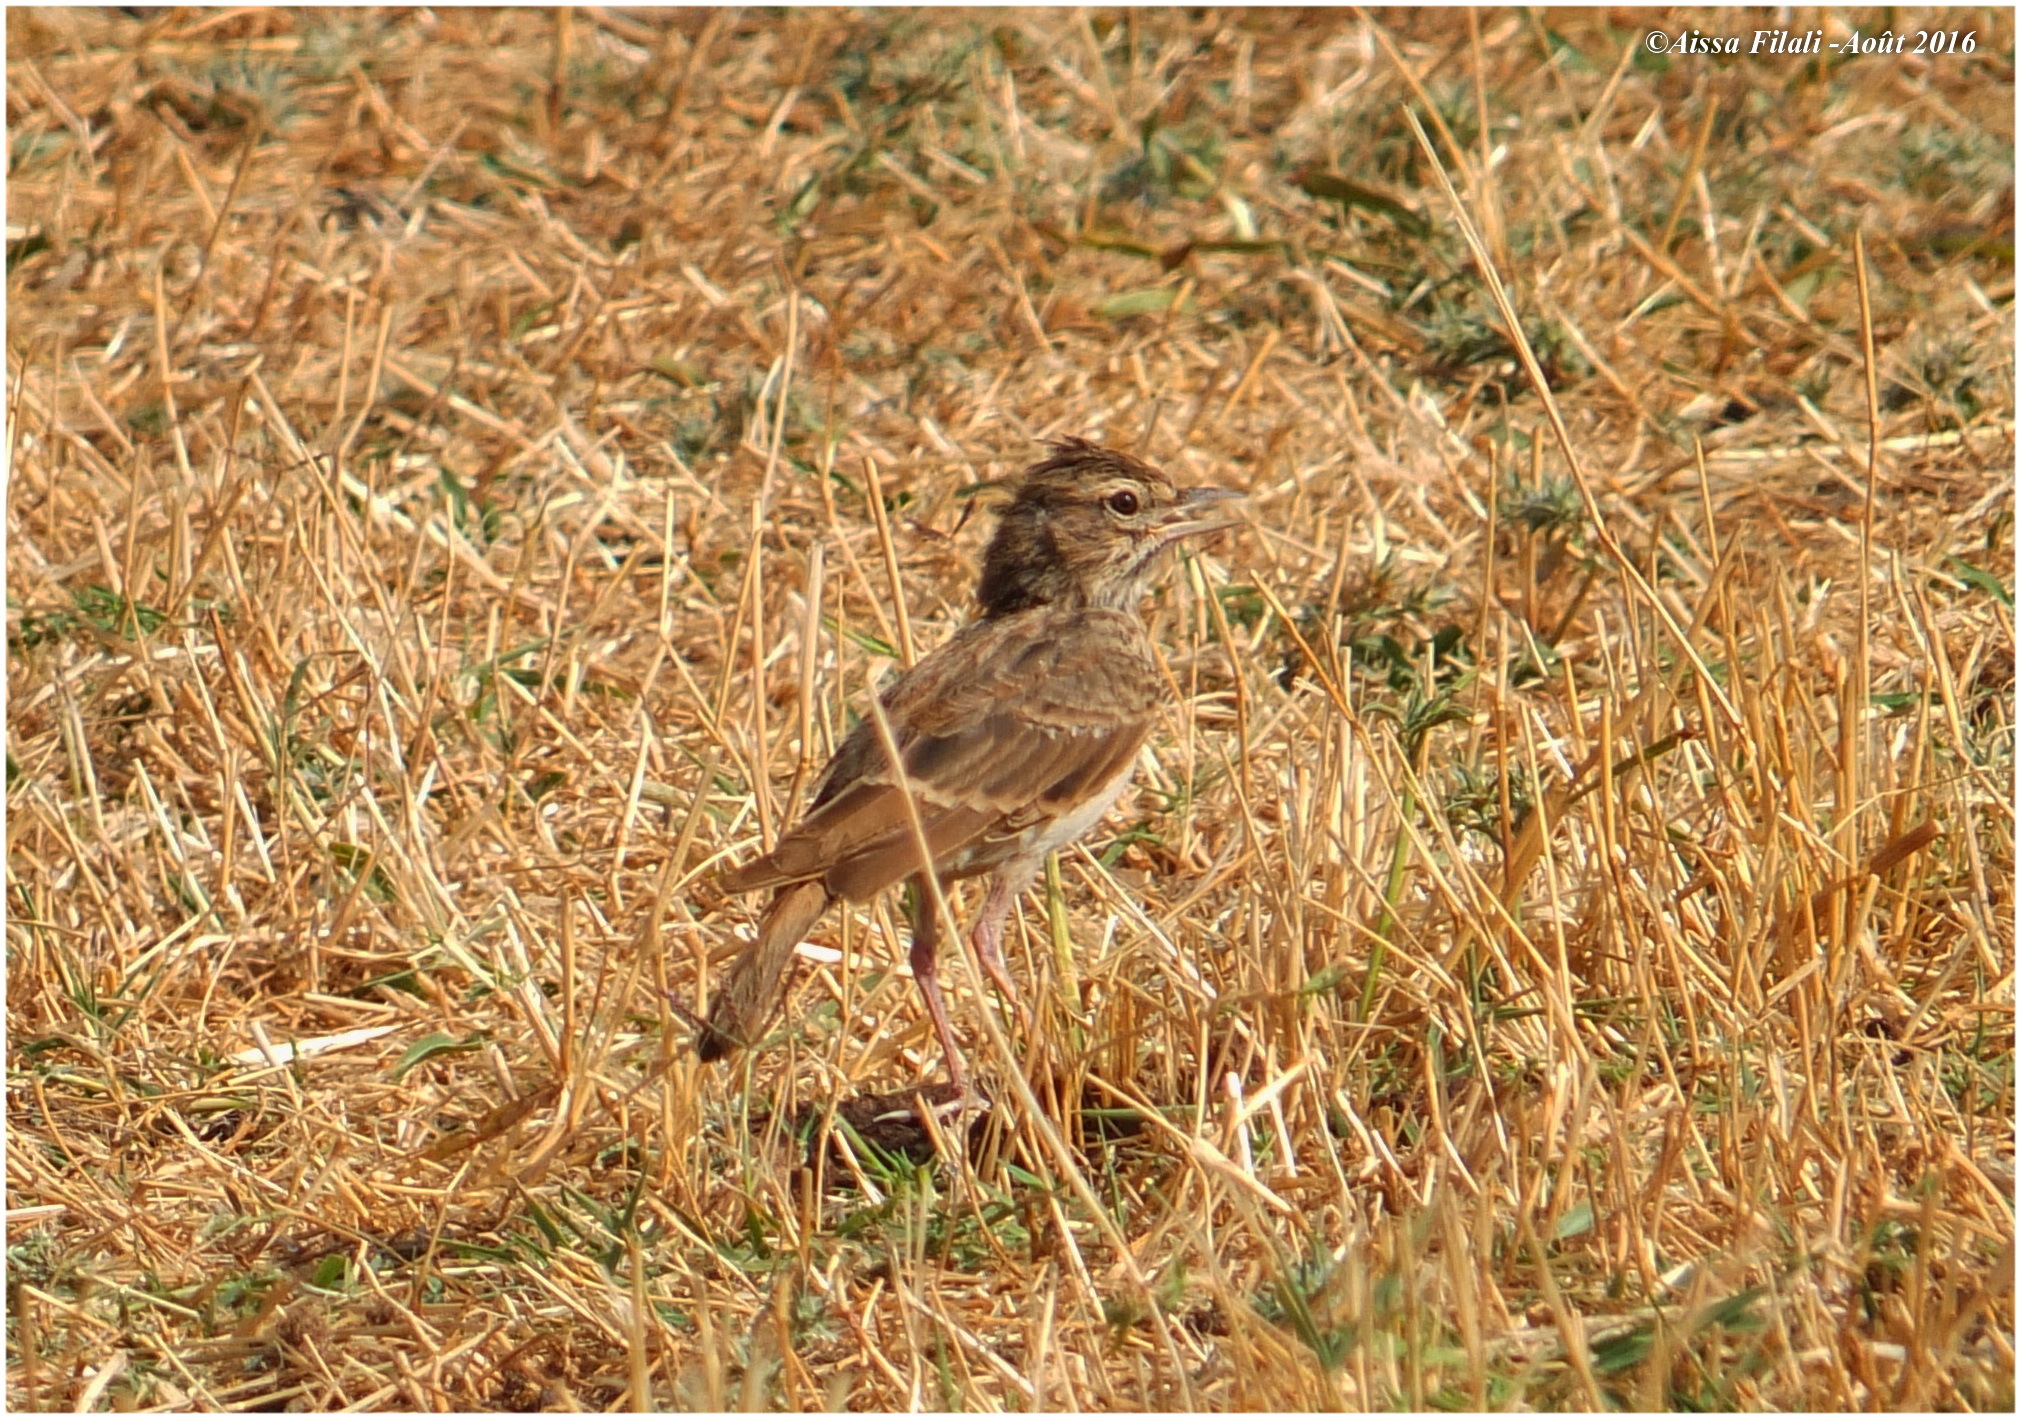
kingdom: Animalia
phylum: Chordata
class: Aves
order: Passeriformes
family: Alaudidae
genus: Alauda
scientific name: Alauda arvensis
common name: Eurasian skylark
